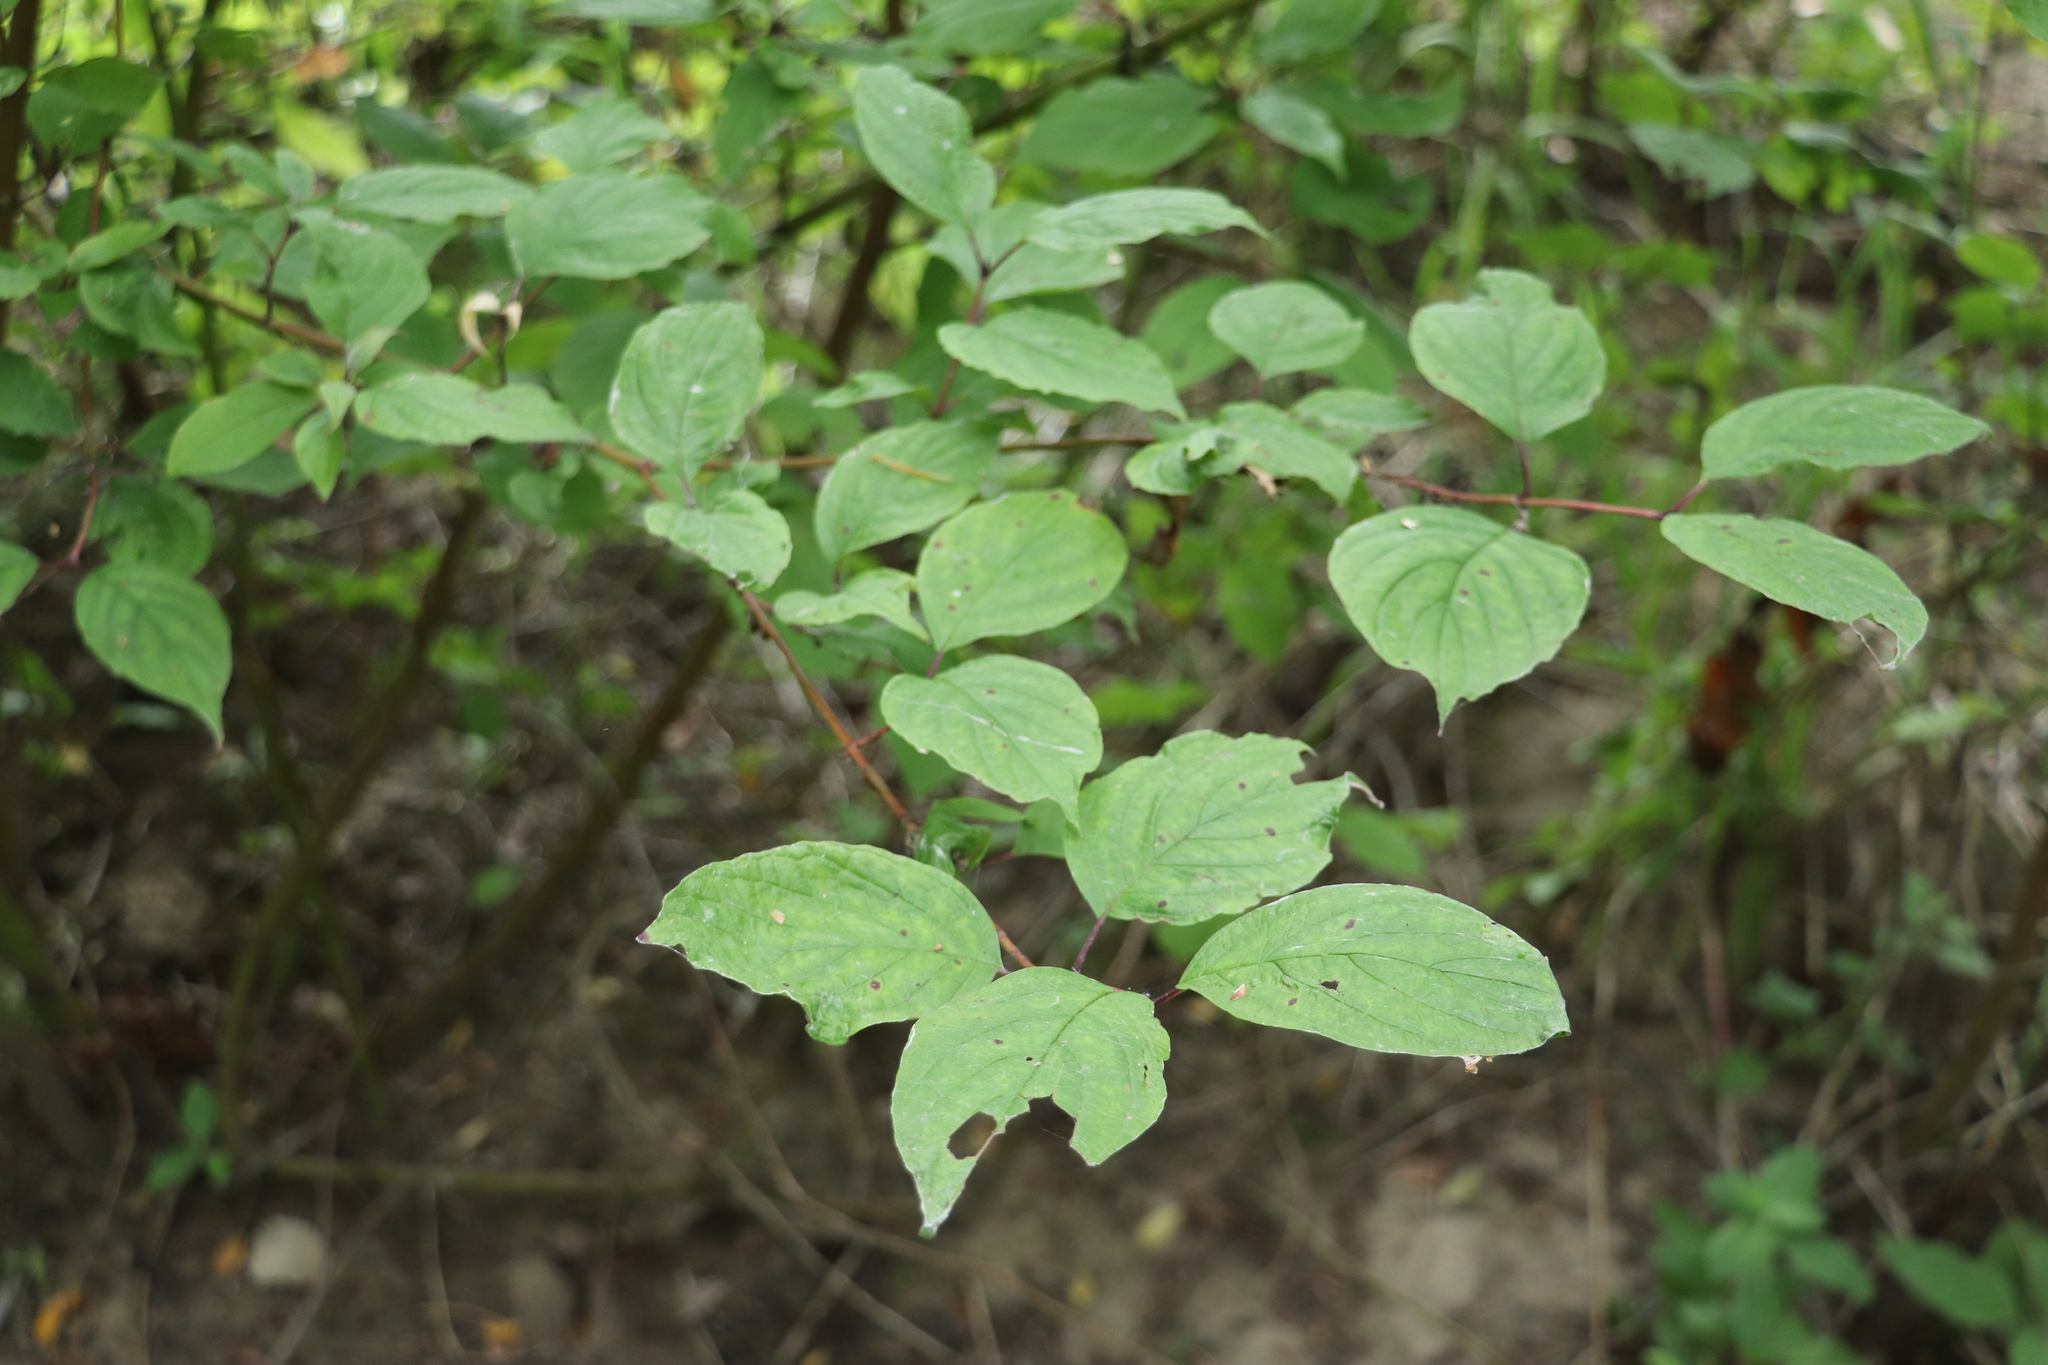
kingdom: Plantae
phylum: Tracheophyta
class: Magnoliopsida
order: Cornales
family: Cornaceae
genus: Cornus
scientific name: Cornus alba
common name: White dogwood
